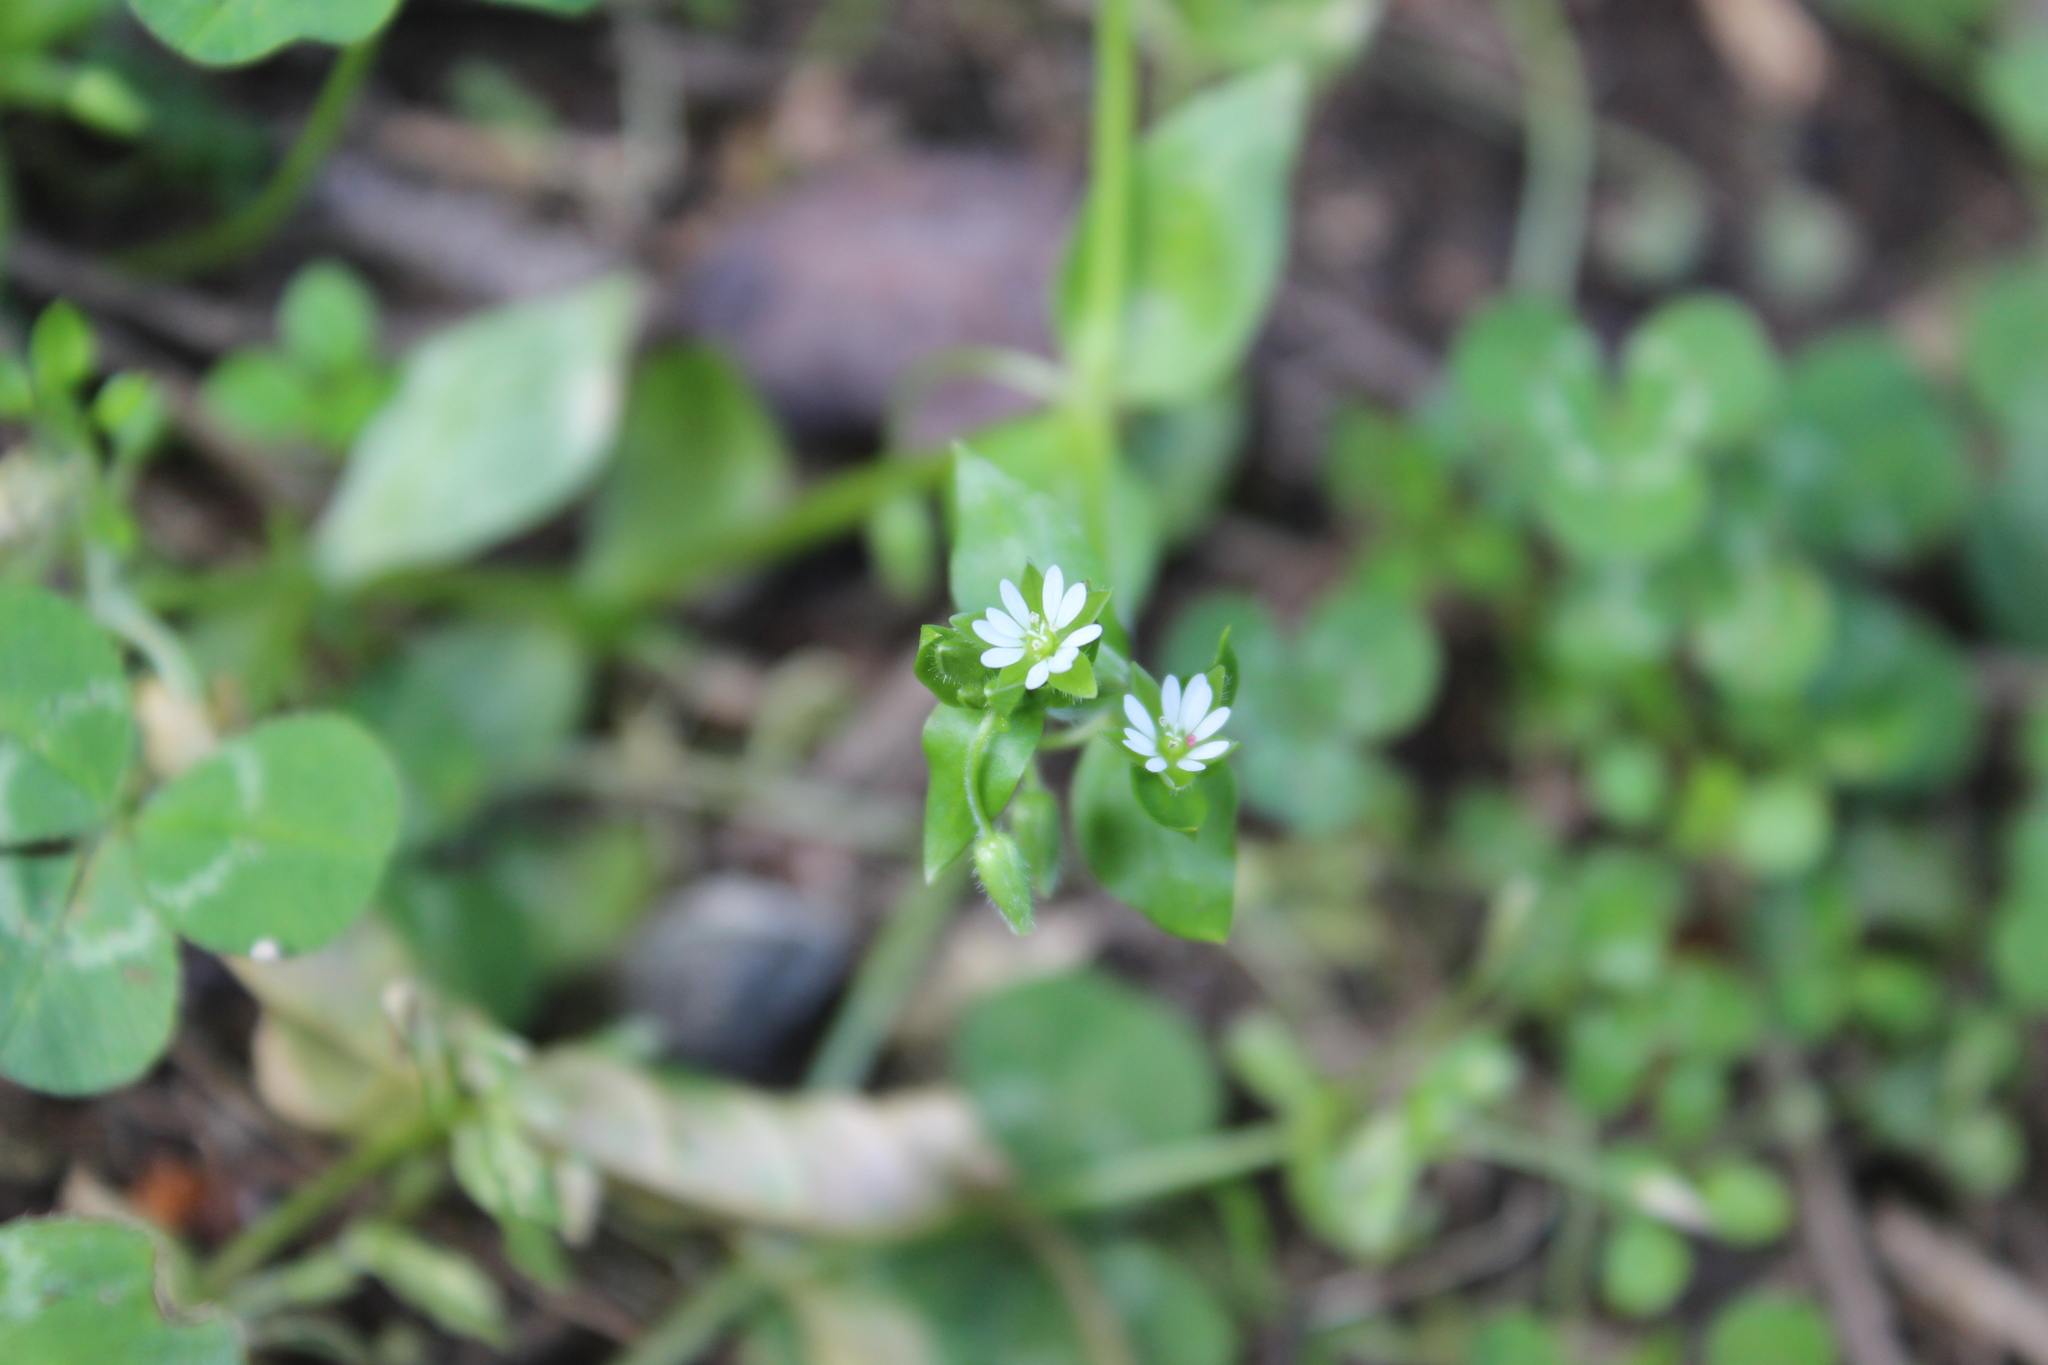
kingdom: Plantae
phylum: Tracheophyta
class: Magnoliopsida
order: Caryophyllales
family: Caryophyllaceae
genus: Stellaria
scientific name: Stellaria media
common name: Common chickweed
